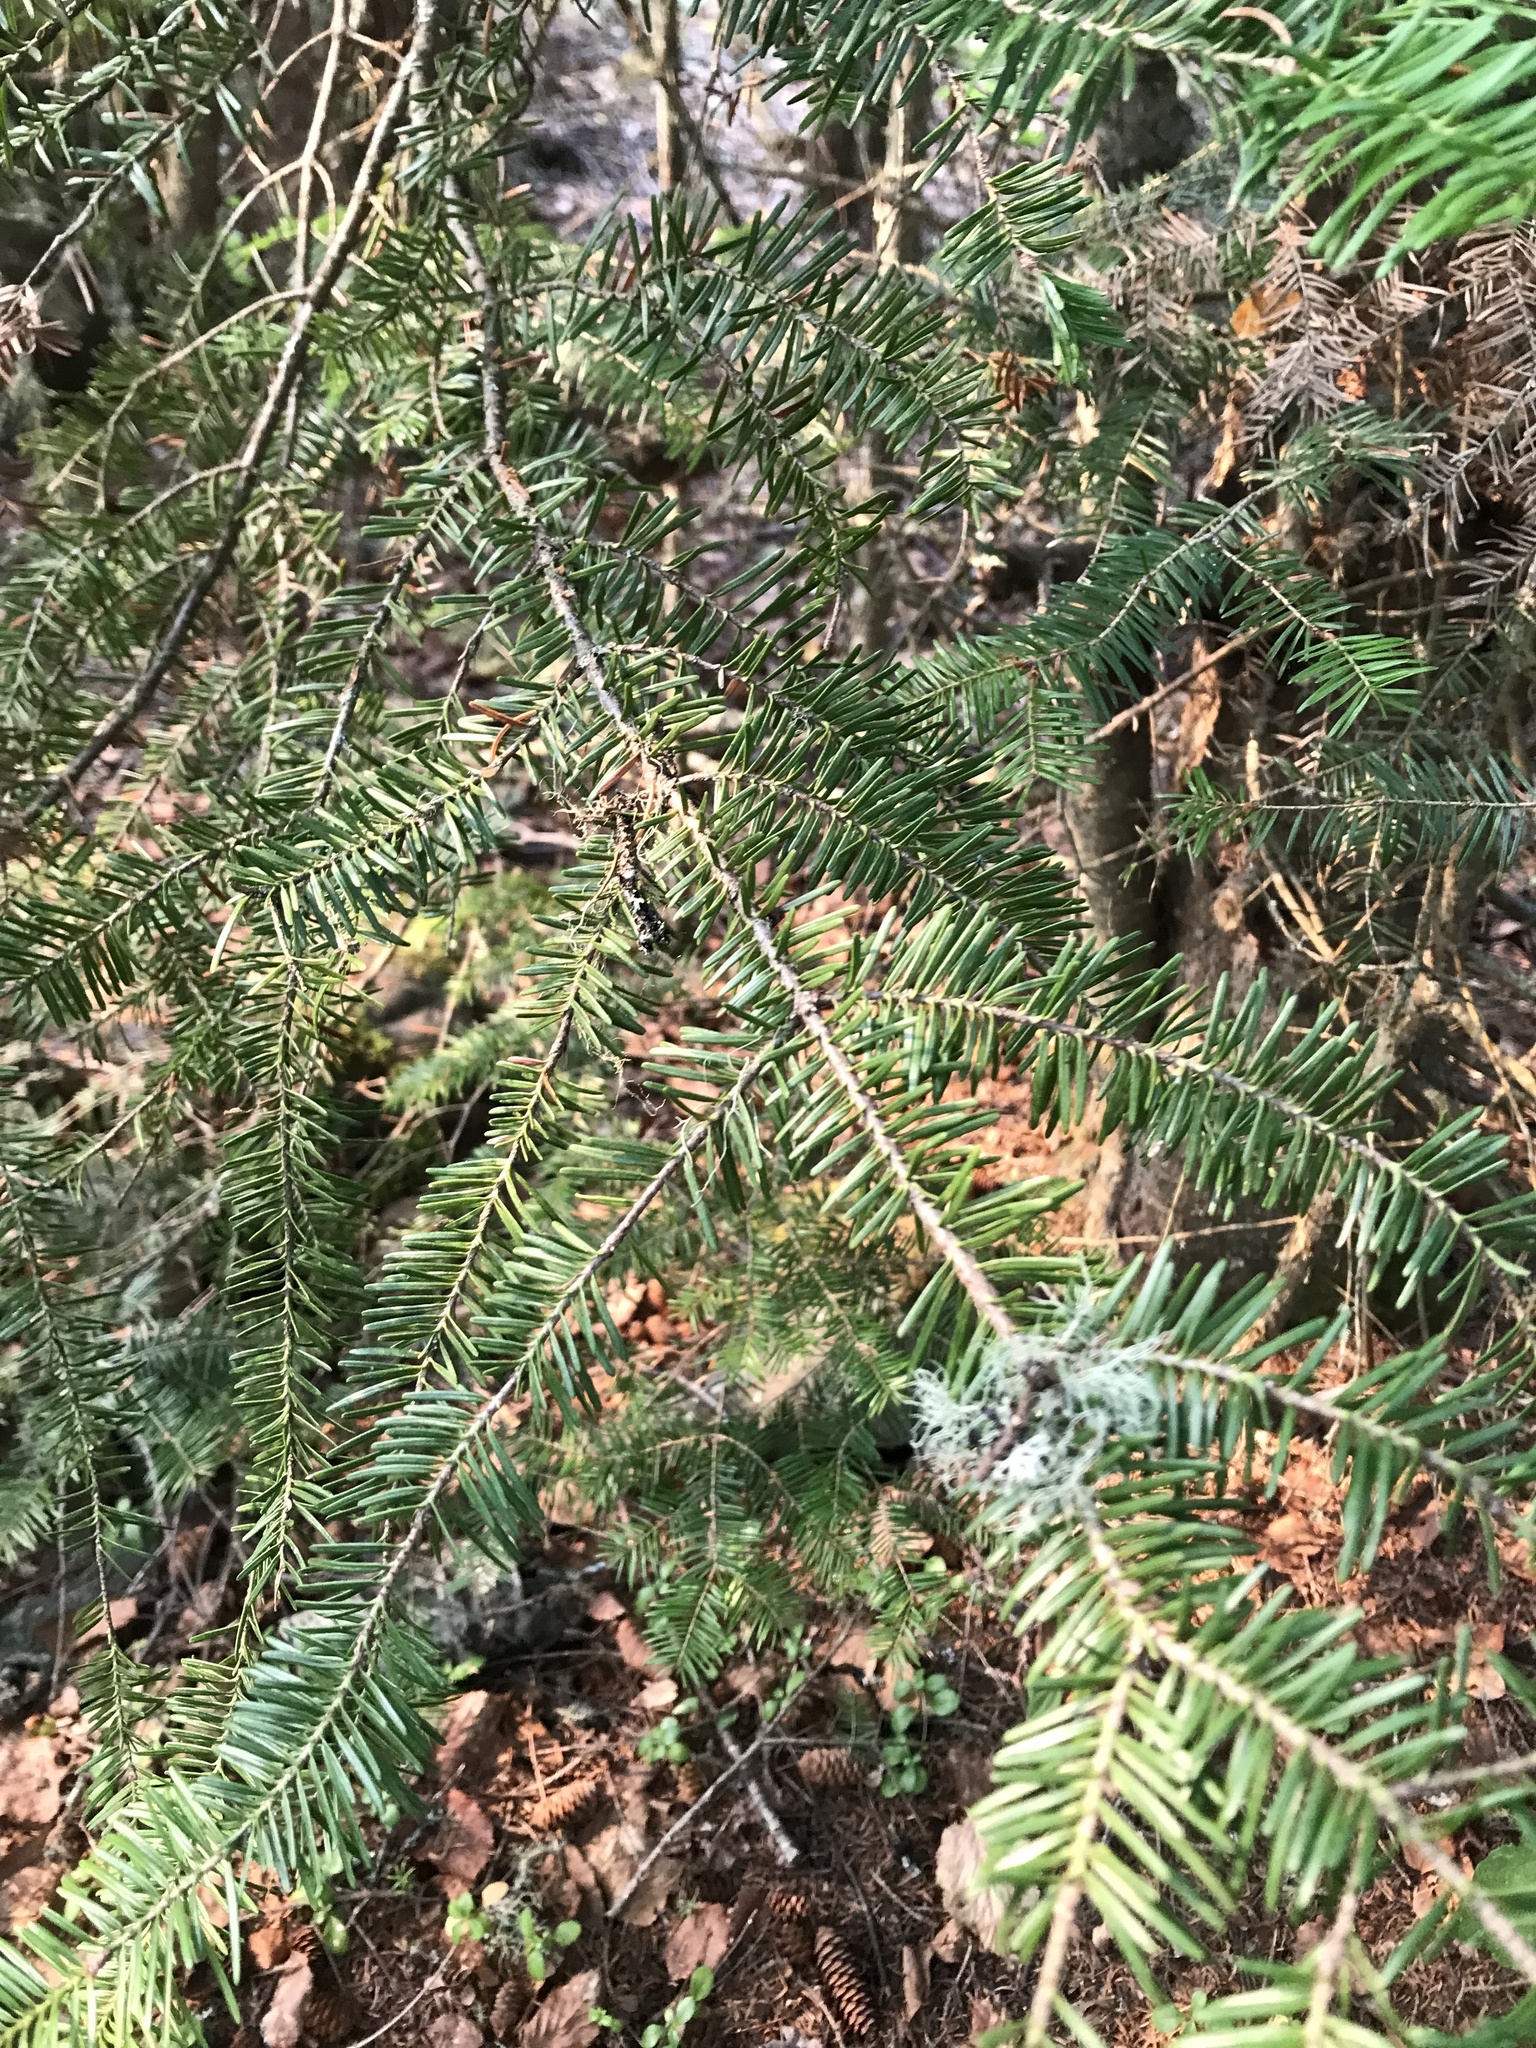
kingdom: Plantae
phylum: Tracheophyta
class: Pinopsida
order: Pinales
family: Pinaceae
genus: Abies
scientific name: Abies balsamea
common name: Balsam fir
